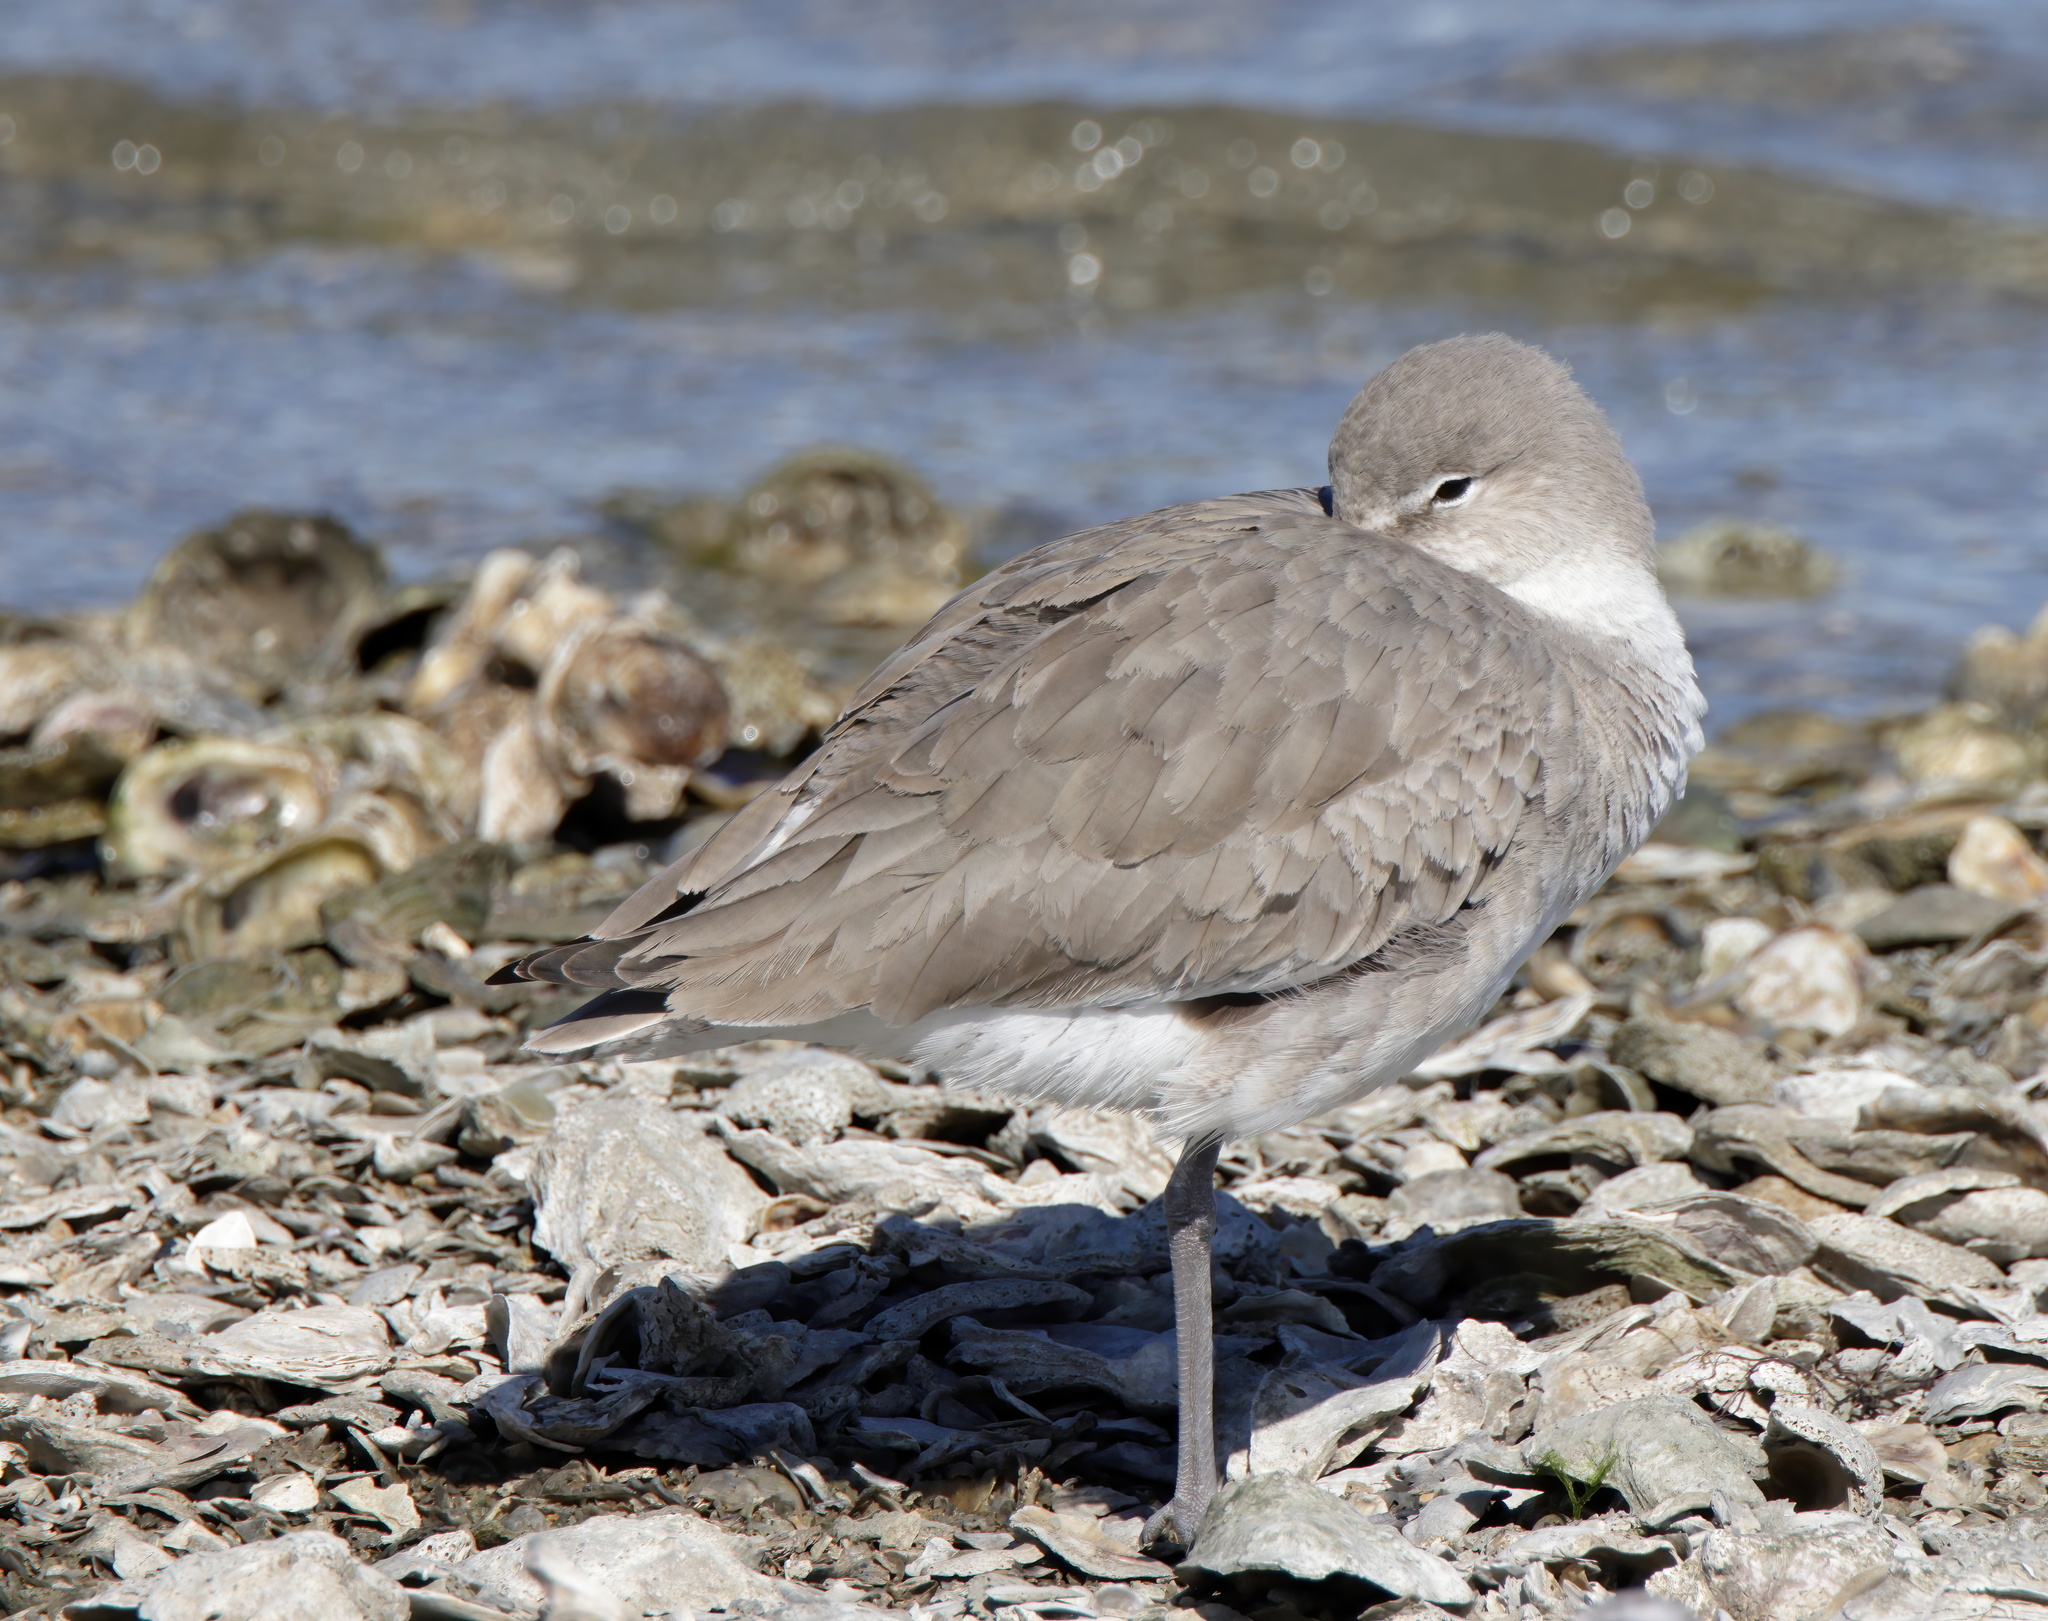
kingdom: Animalia
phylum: Chordata
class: Aves
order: Charadriiformes
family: Scolopacidae
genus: Tringa
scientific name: Tringa semipalmata
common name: Willet
